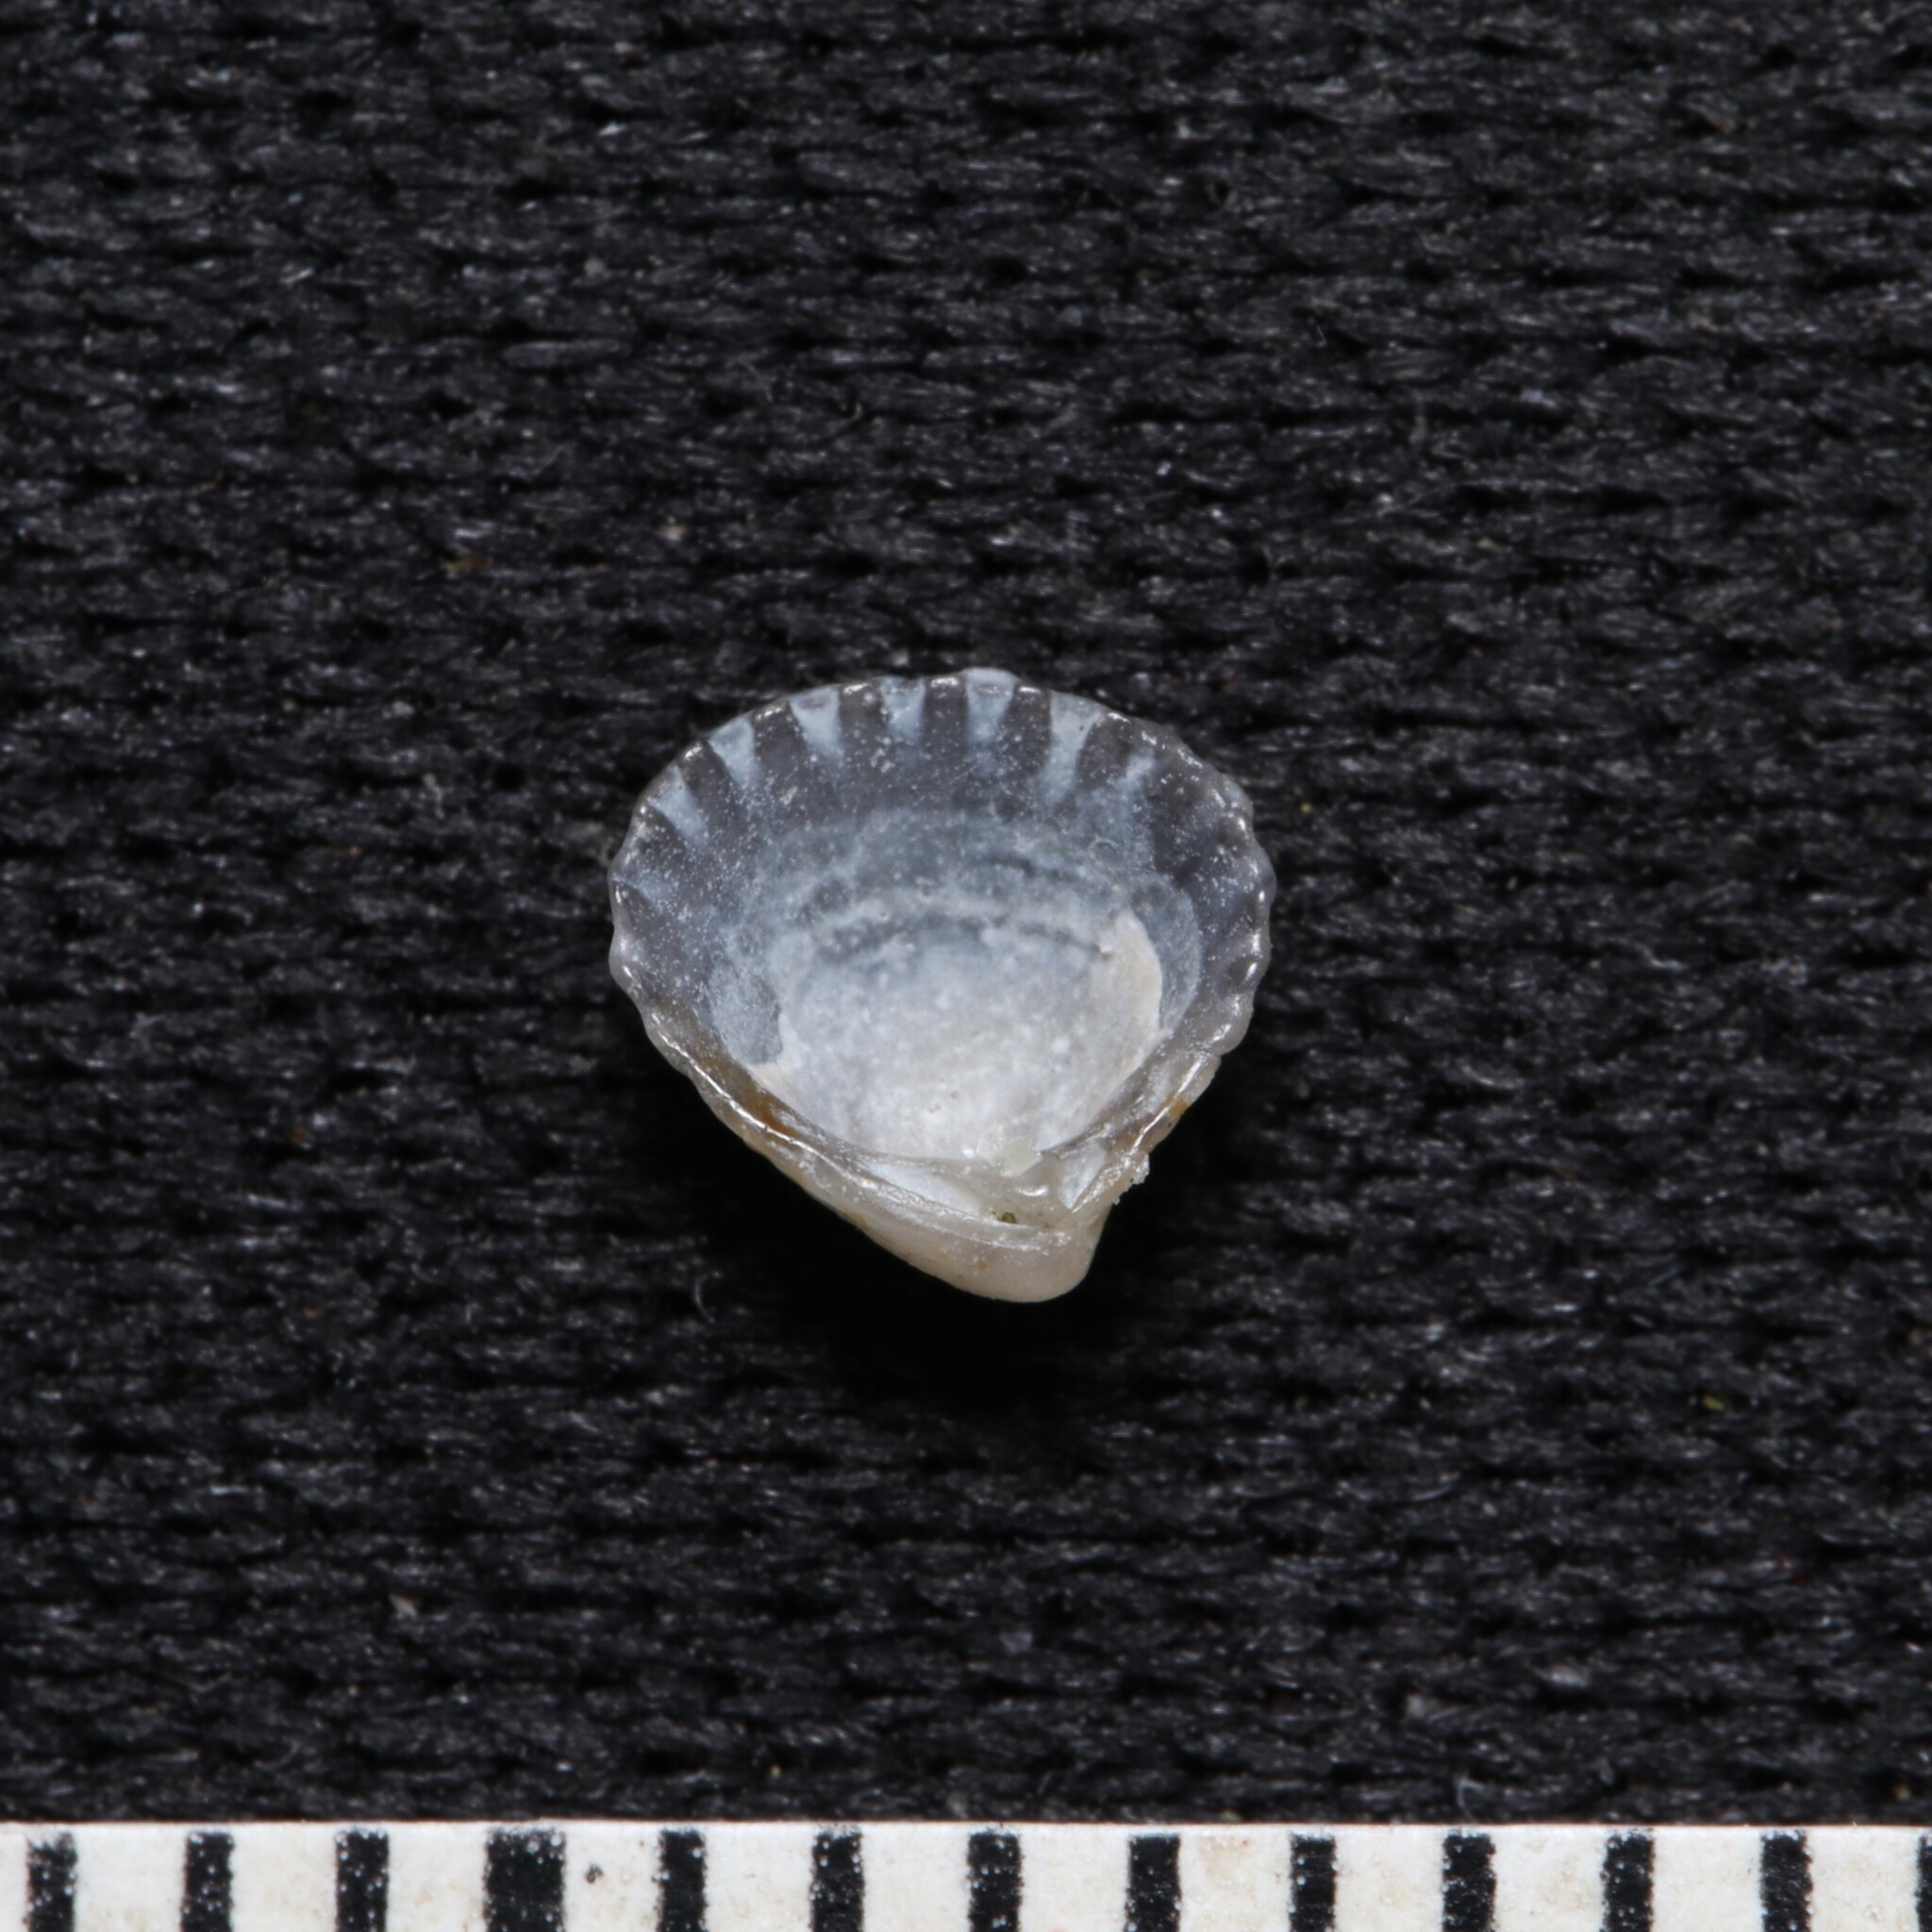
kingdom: Animalia
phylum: Mollusca
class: Bivalvia
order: Carditida
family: Carditidae
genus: Pleuromeris
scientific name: Pleuromeris tridentata
